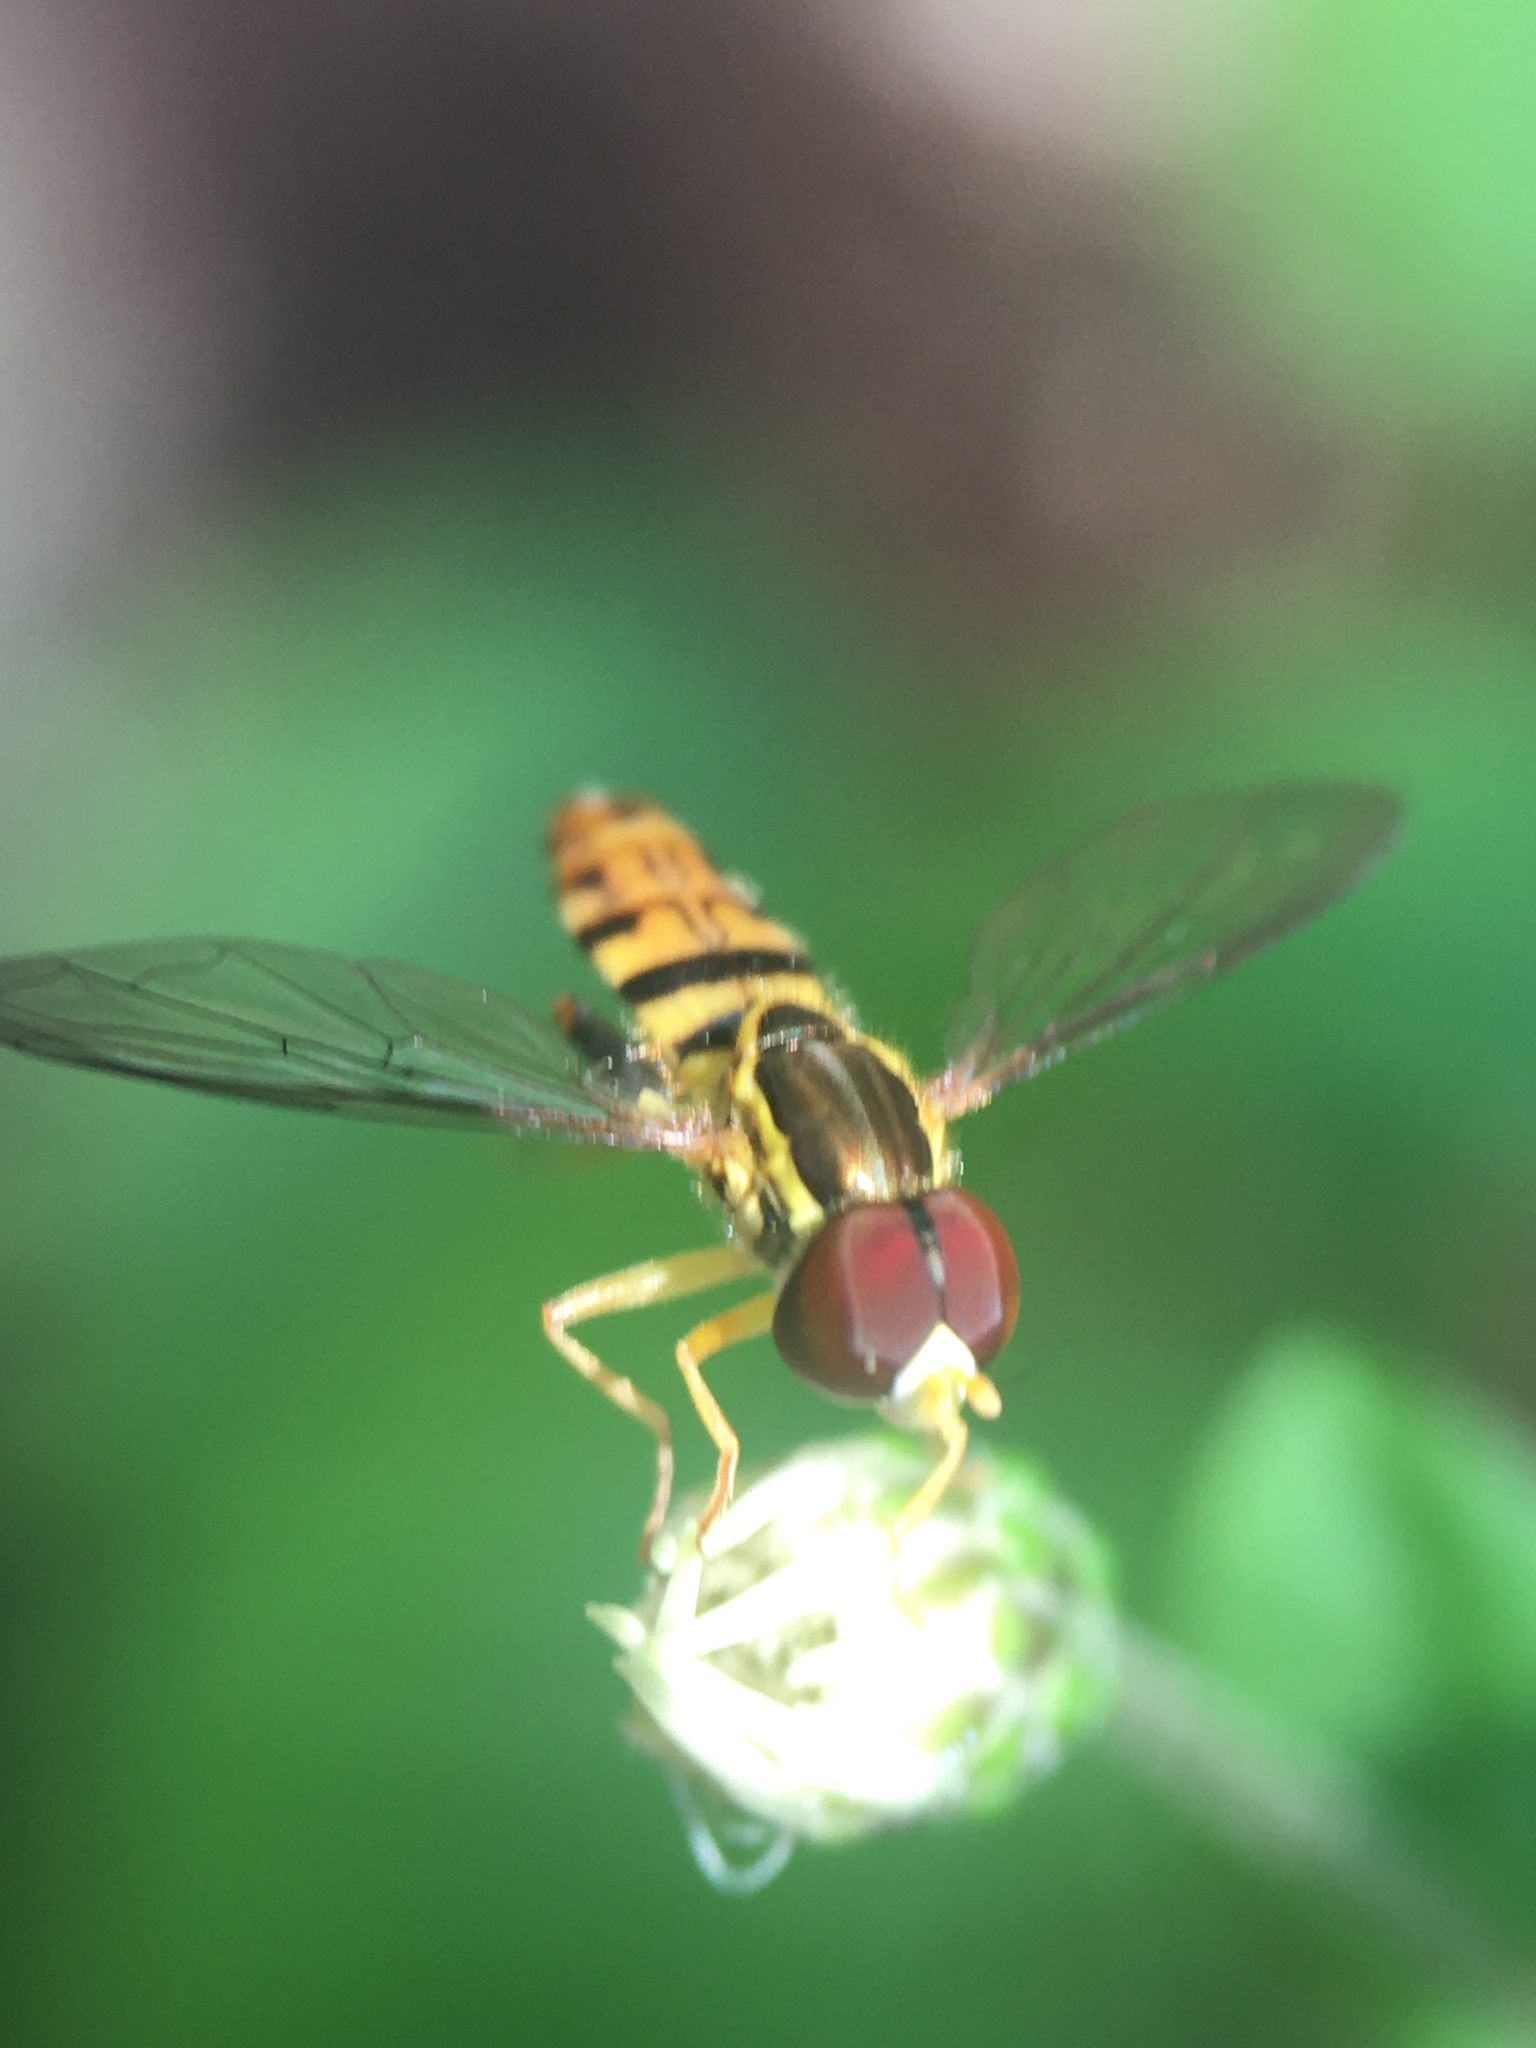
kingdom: Animalia
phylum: Arthropoda
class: Insecta
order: Diptera
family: Syrphidae
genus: Toxomerus
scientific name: Toxomerus geminatus
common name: Eastern calligrapher
